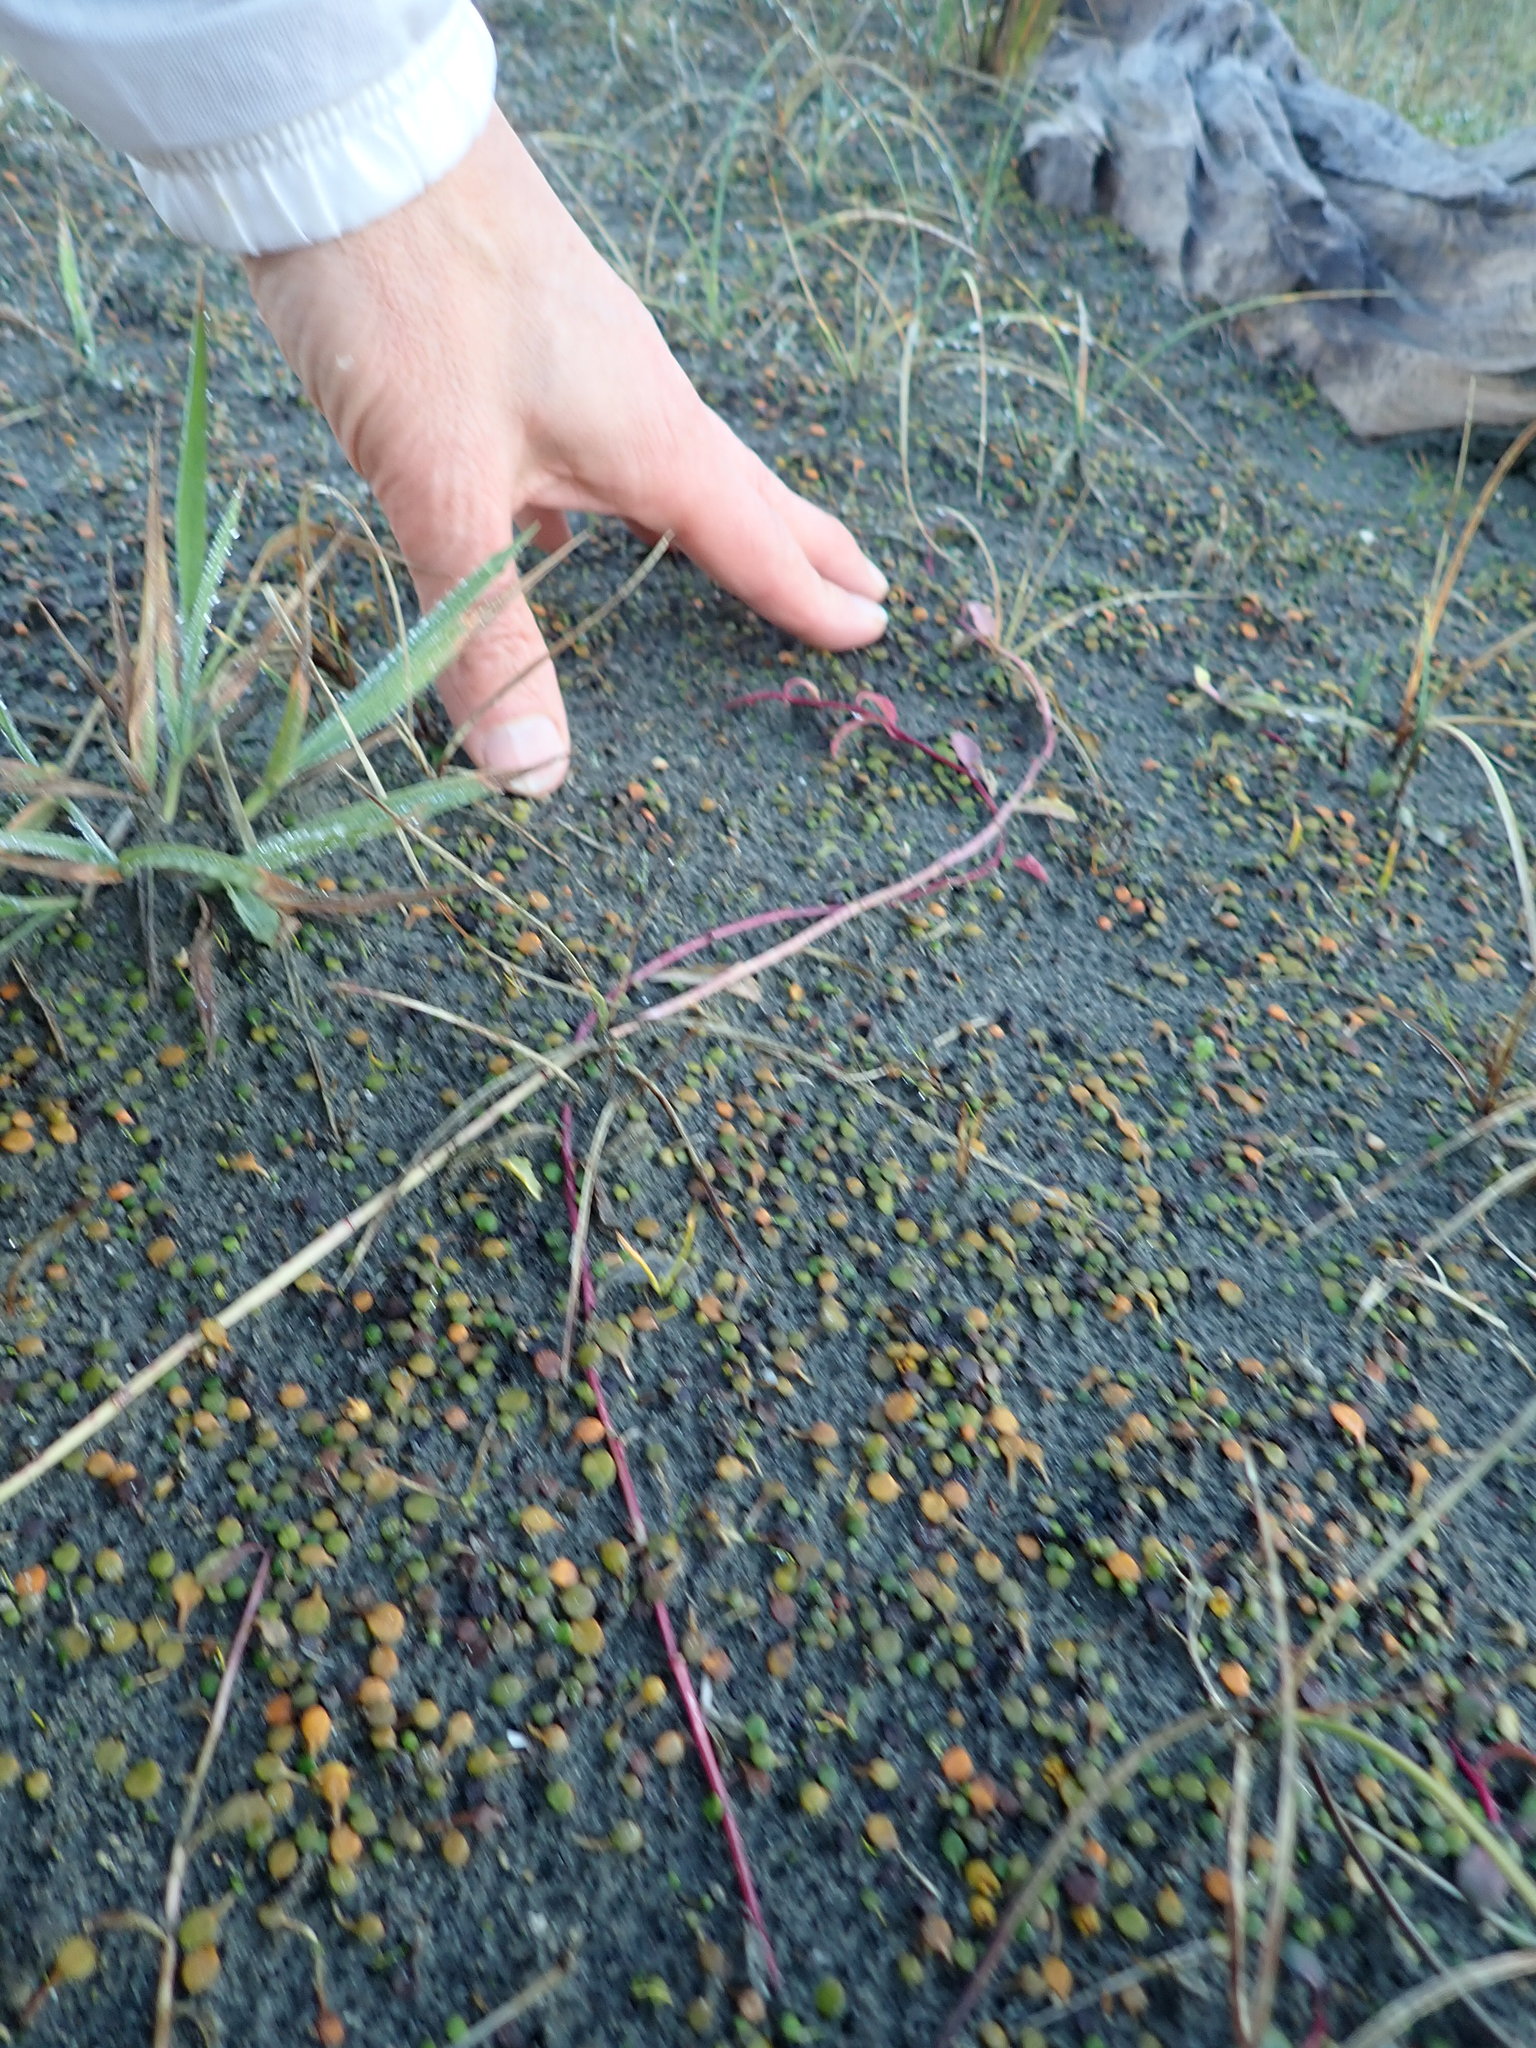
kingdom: Plantae
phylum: Tracheophyta
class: Magnoliopsida
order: Asterales
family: Campanulaceae
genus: Lobelia
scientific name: Lobelia anceps
